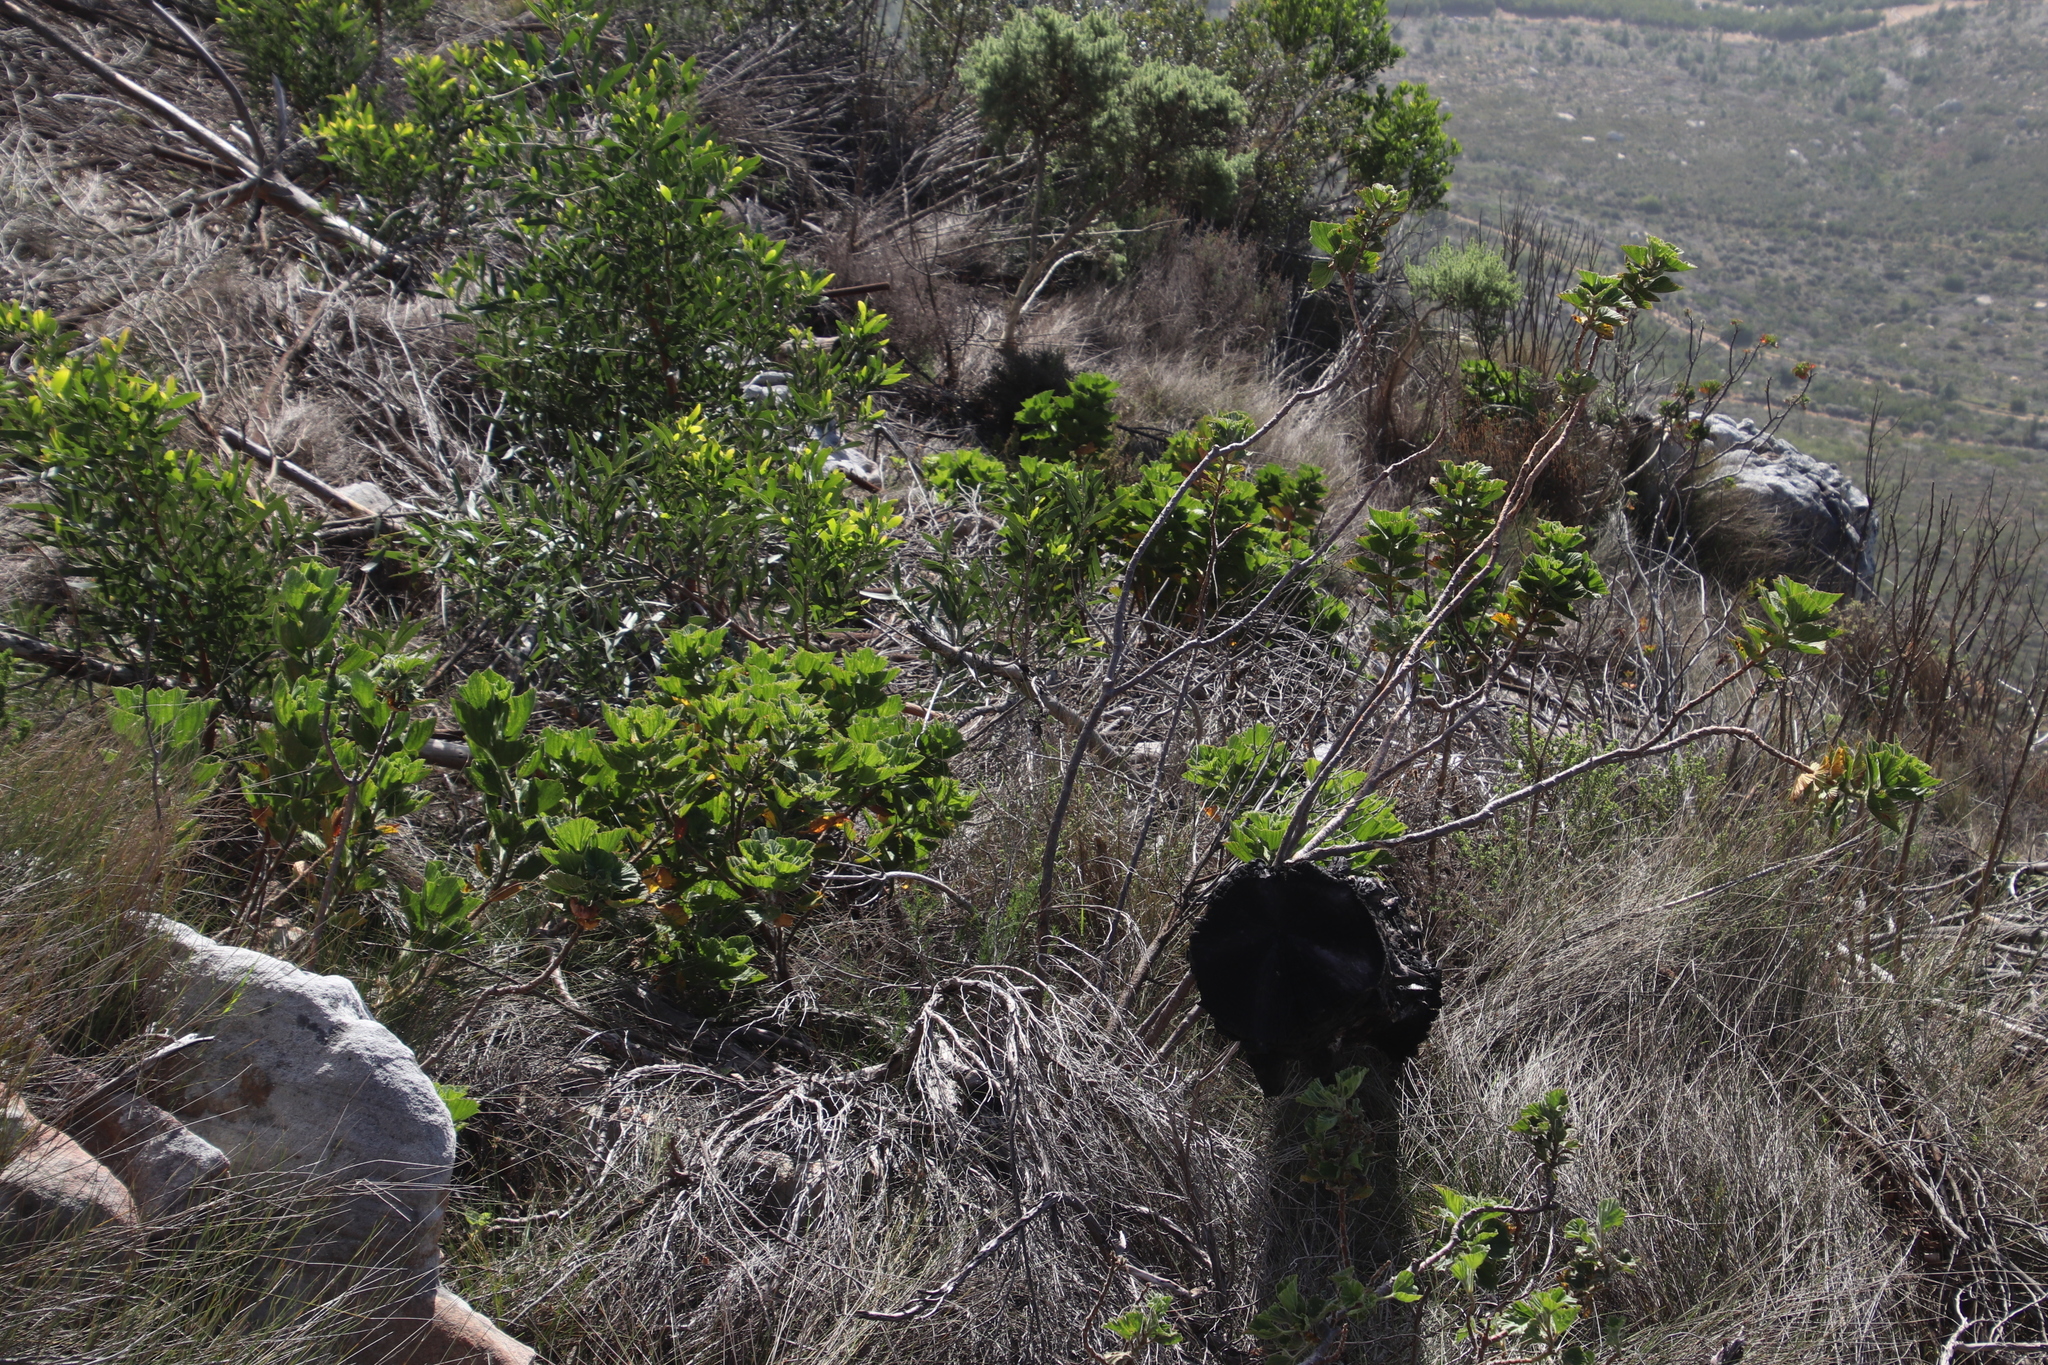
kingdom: Plantae
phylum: Tracheophyta
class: Magnoliopsida
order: Geraniales
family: Geraniaceae
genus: Pelargonium
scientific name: Pelargonium cucullatum
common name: Tree pelargonium
